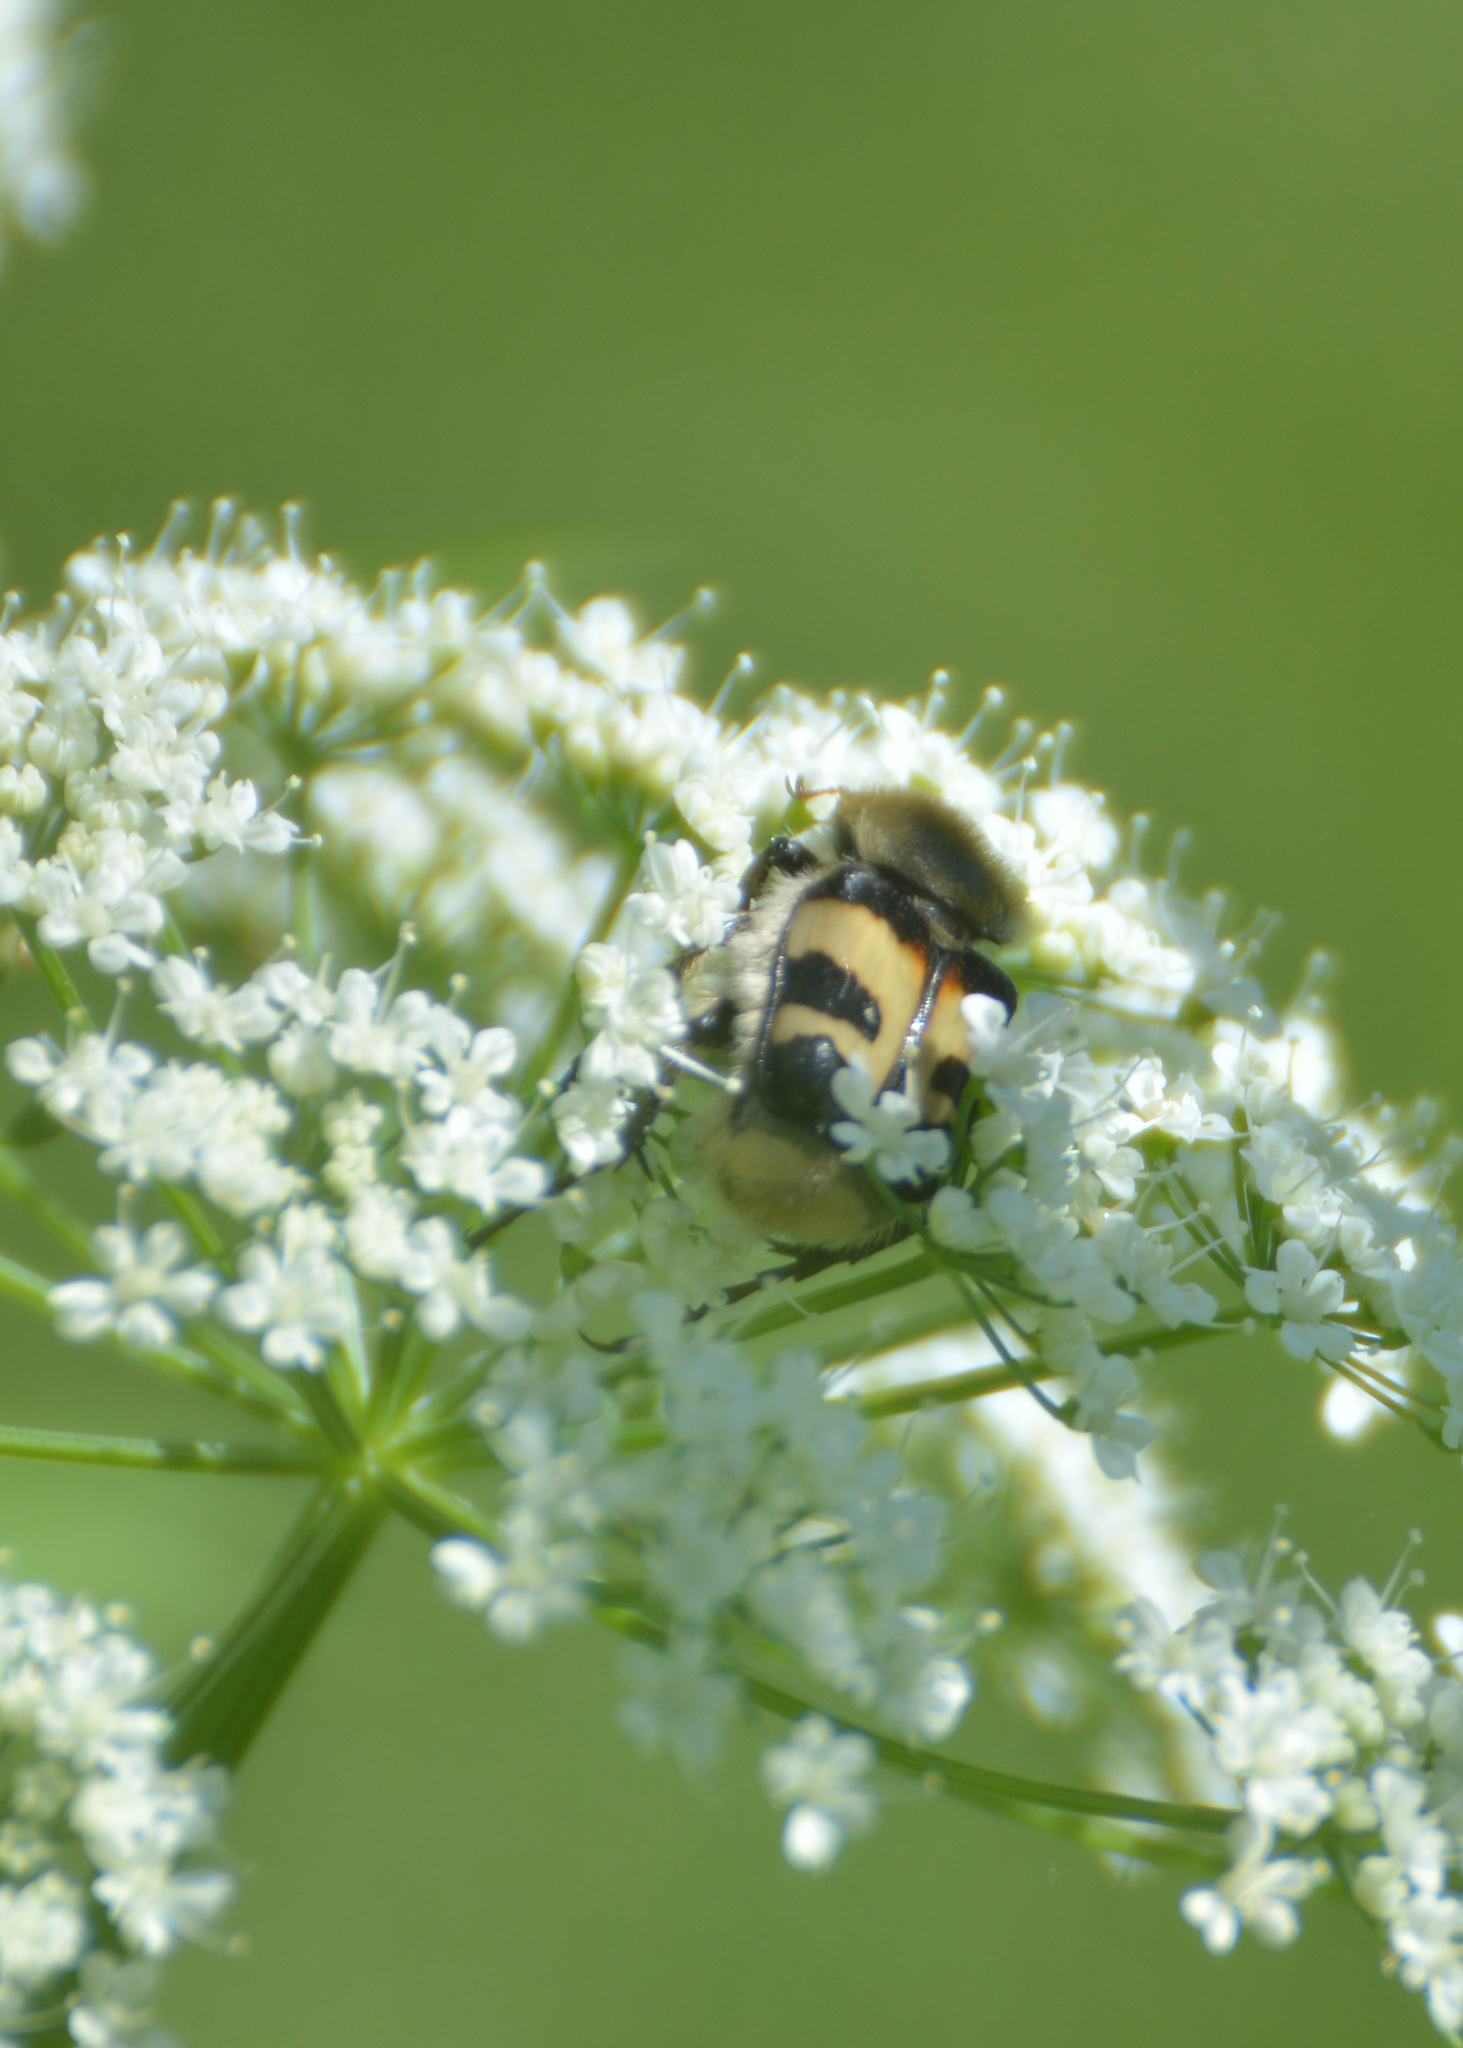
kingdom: Animalia
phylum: Arthropoda
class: Insecta
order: Coleoptera
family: Scarabaeidae
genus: Trichius
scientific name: Trichius fasciatus
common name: Bee beetle
